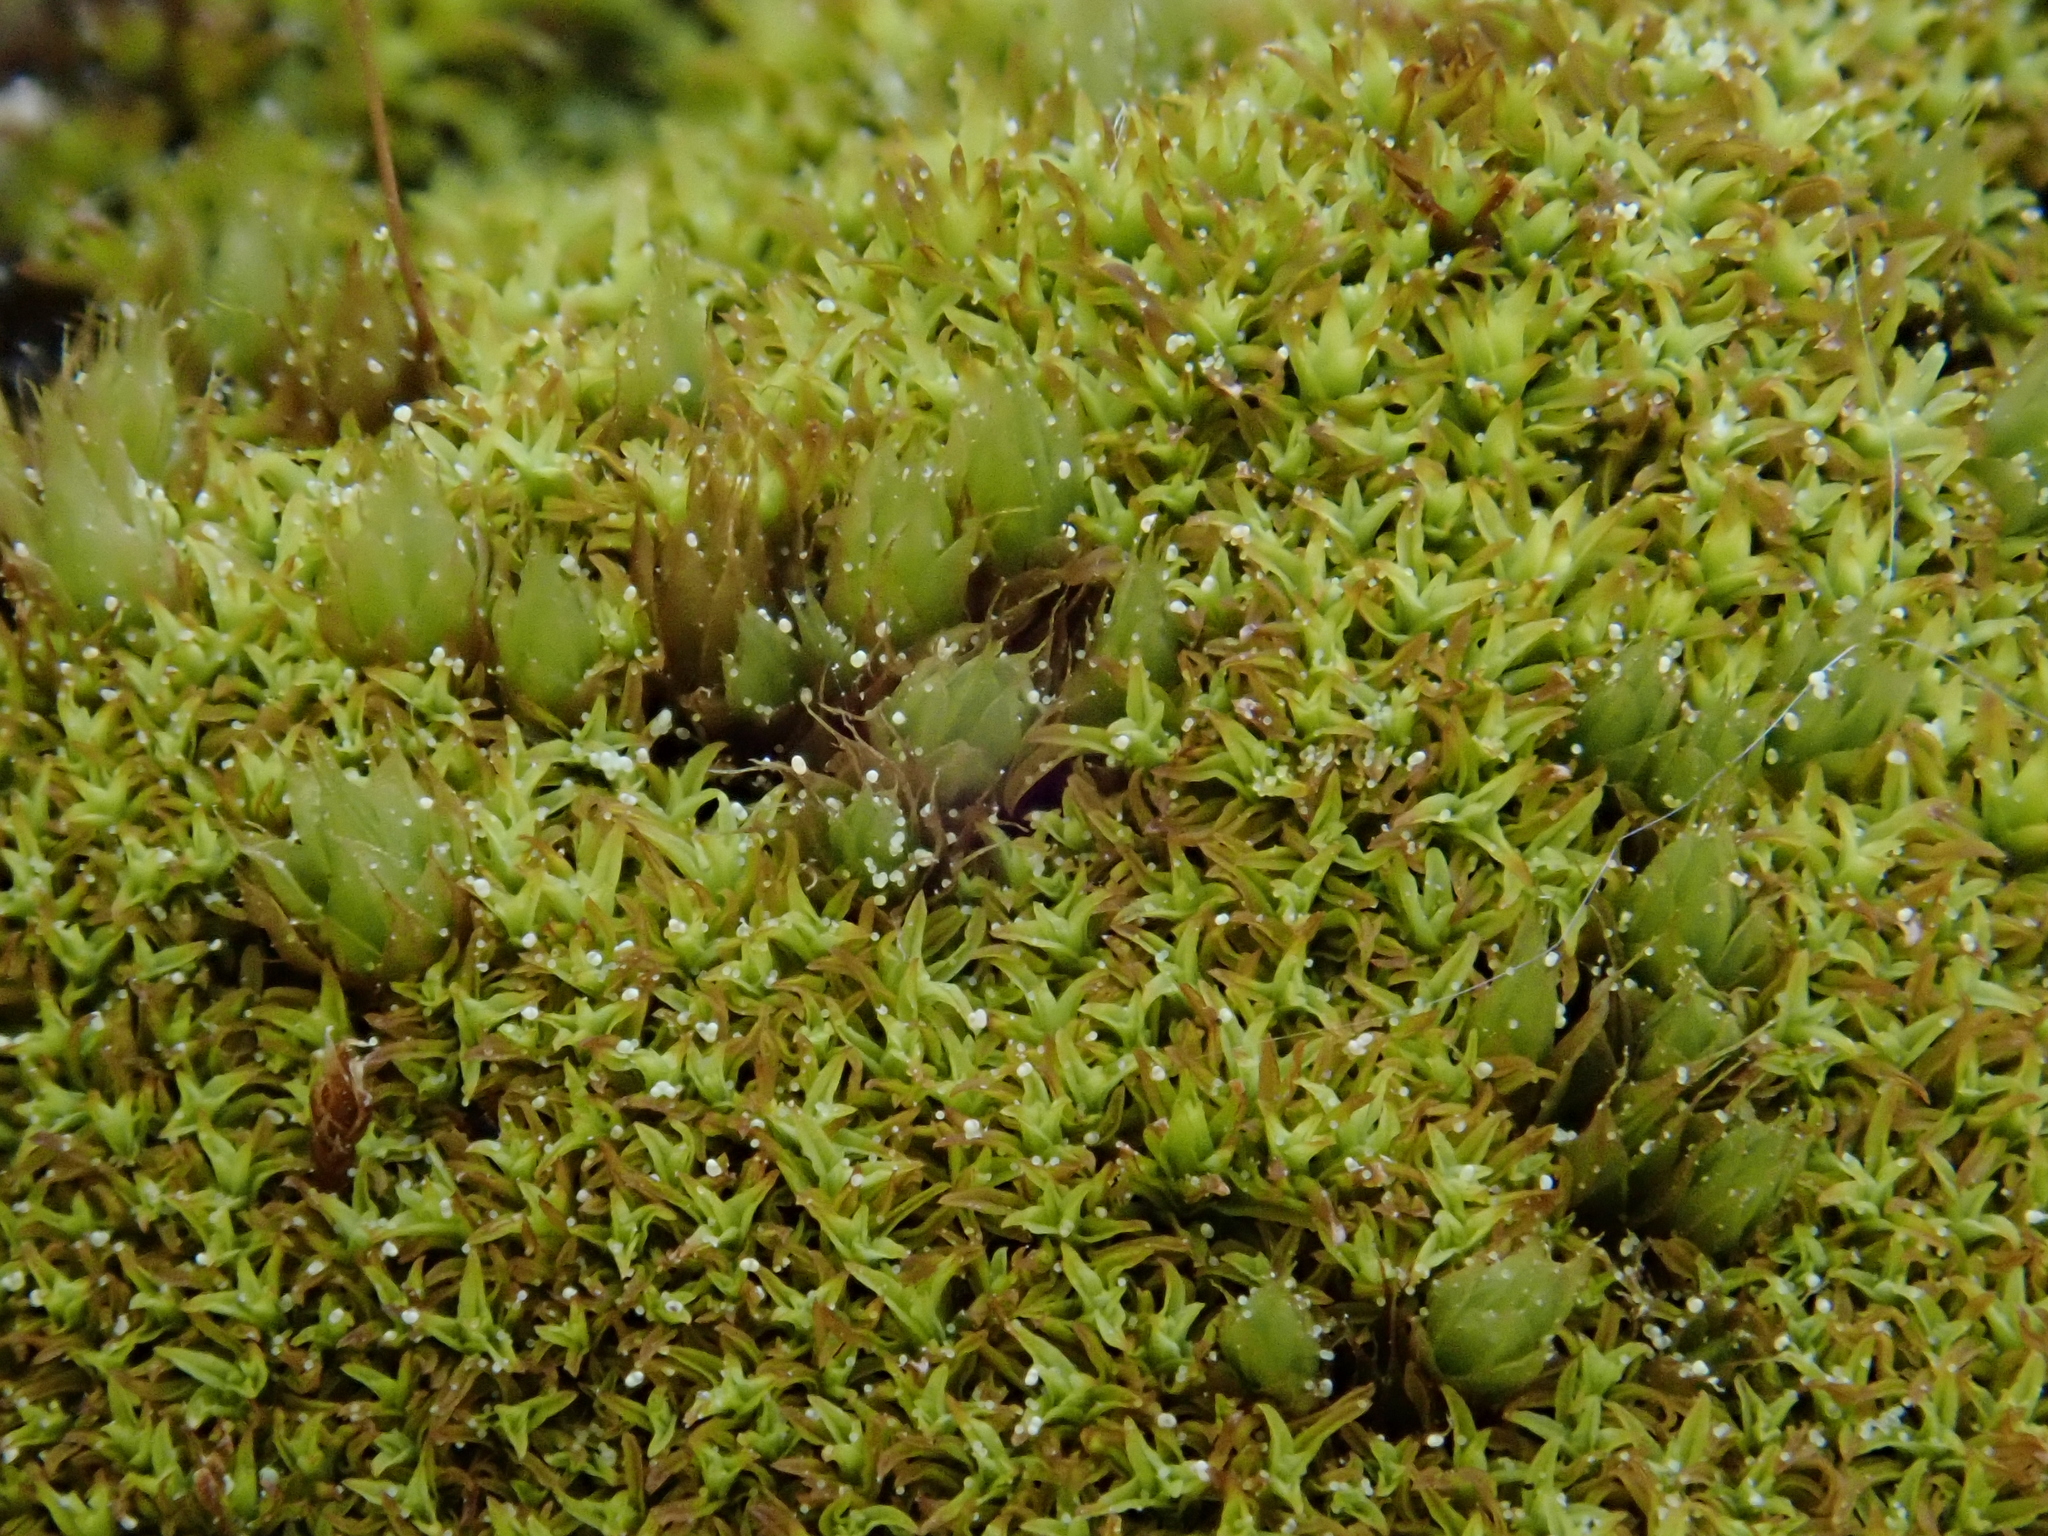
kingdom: Plantae
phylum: Bryophyta
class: Bryopsida
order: Pottiales
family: Pottiaceae
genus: Streblotrichum
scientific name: Streblotrichum convolutum
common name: Lesser bird's-claw beard-moss
